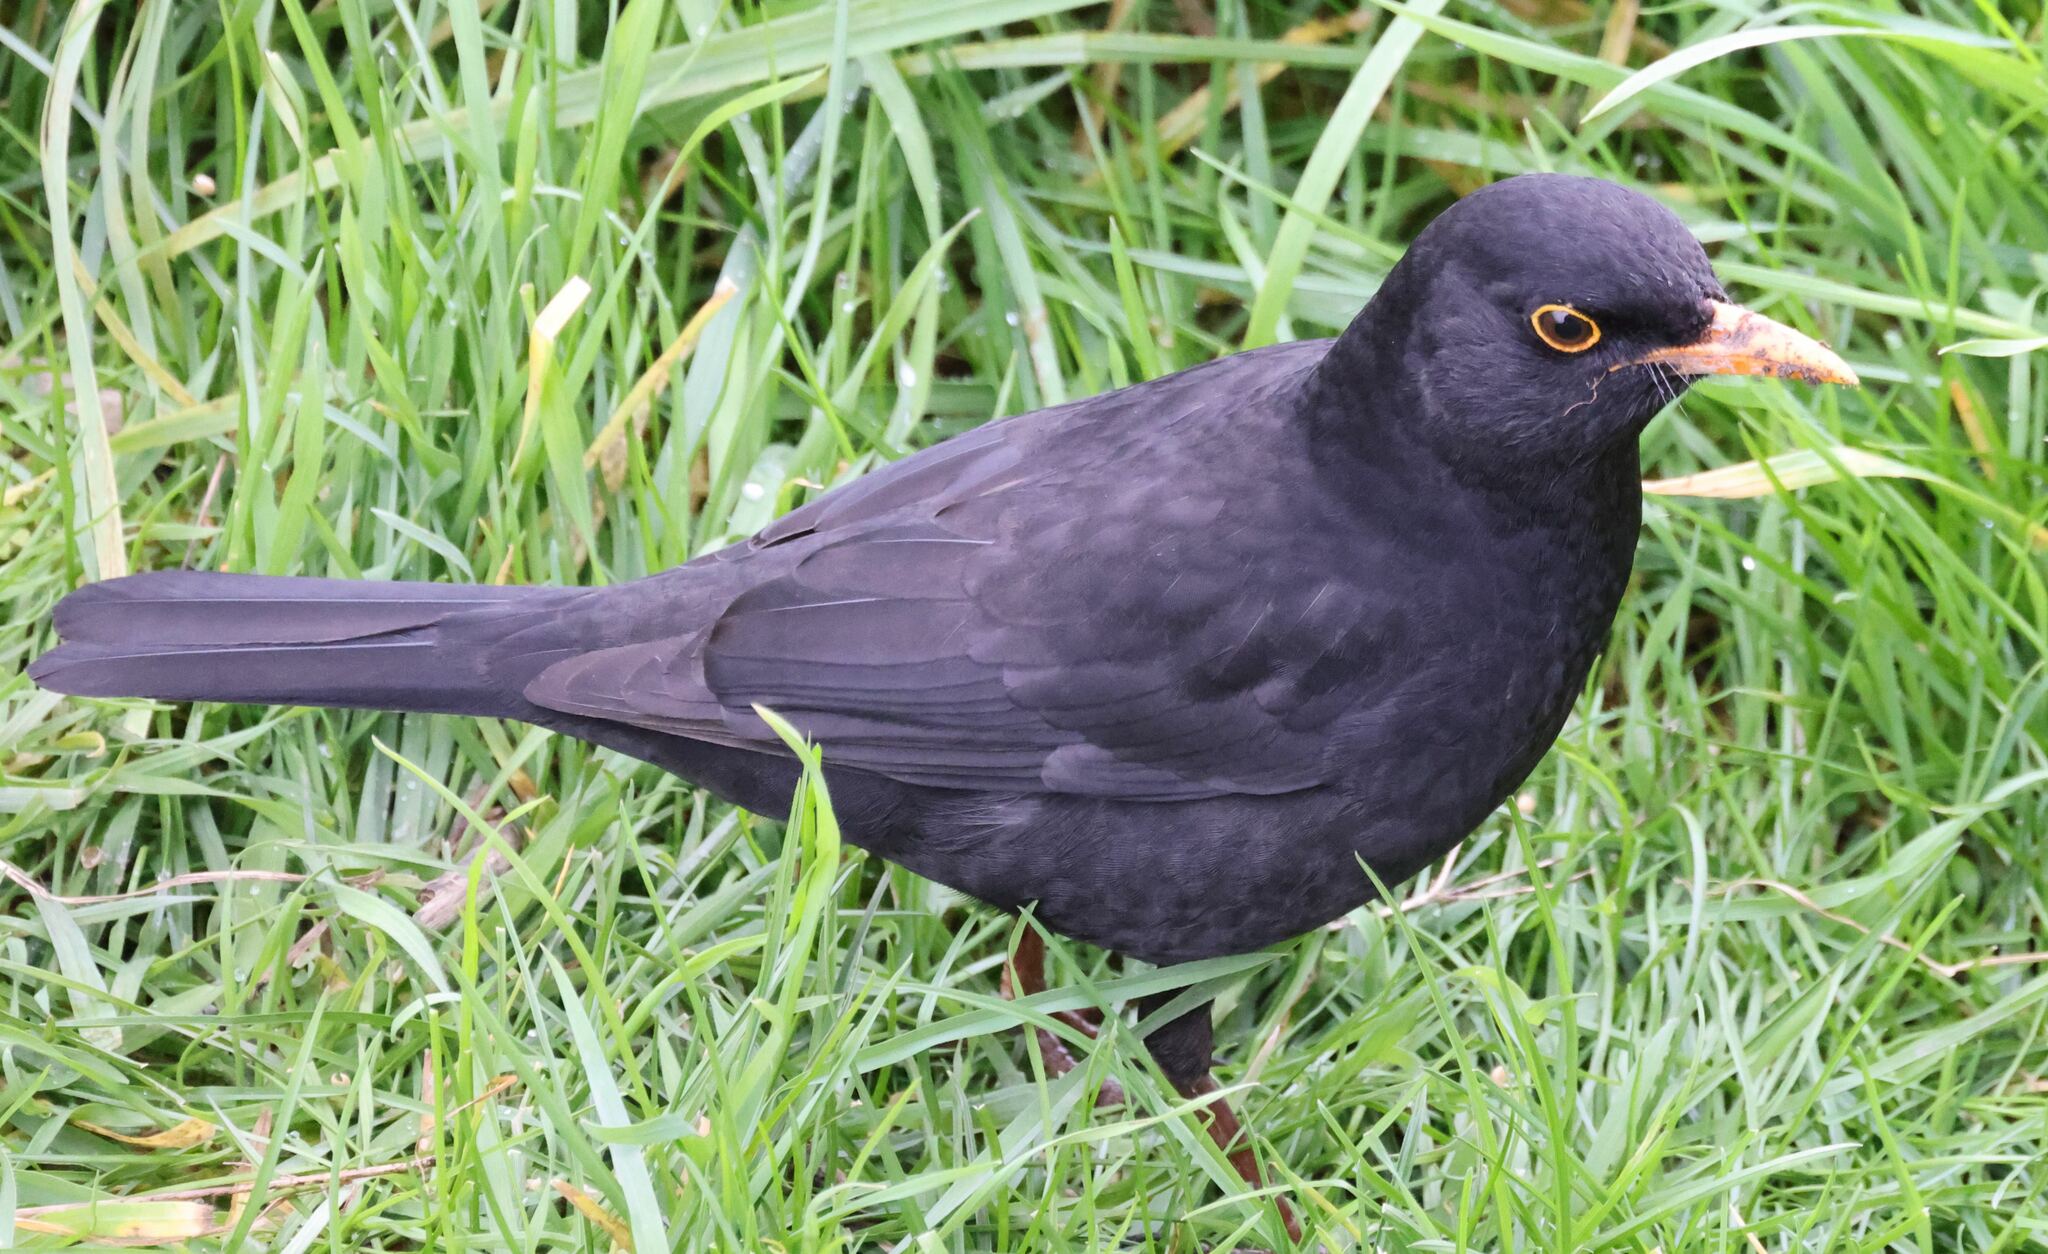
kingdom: Animalia
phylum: Chordata
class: Aves
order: Passeriformes
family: Turdidae
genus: Turdus
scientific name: Turdus merula
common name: Common blackbird
